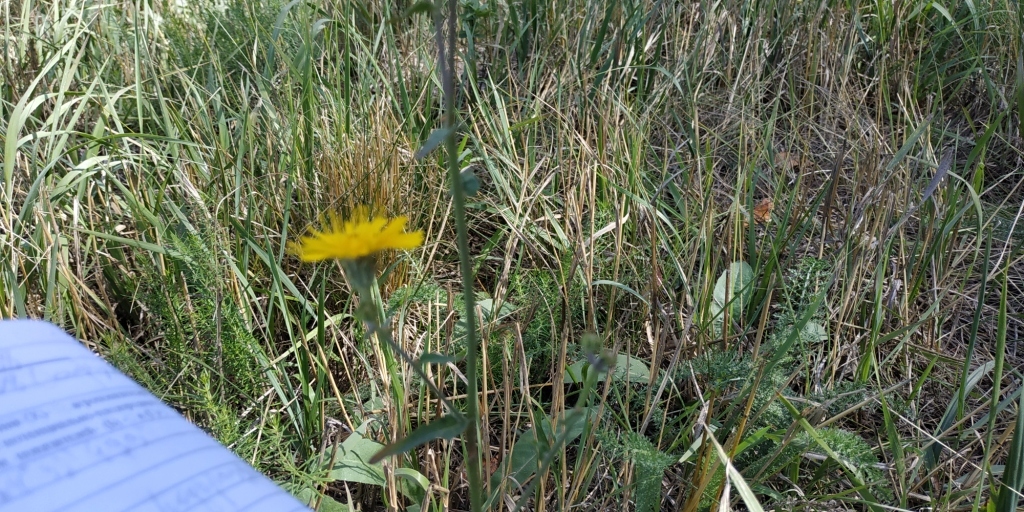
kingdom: Plantae
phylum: Tracheophyta
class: Magnoliopsida
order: Asterales
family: Asteraceae
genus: Picris
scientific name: Picris hieracioides
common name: Hawkweed oxtongue
